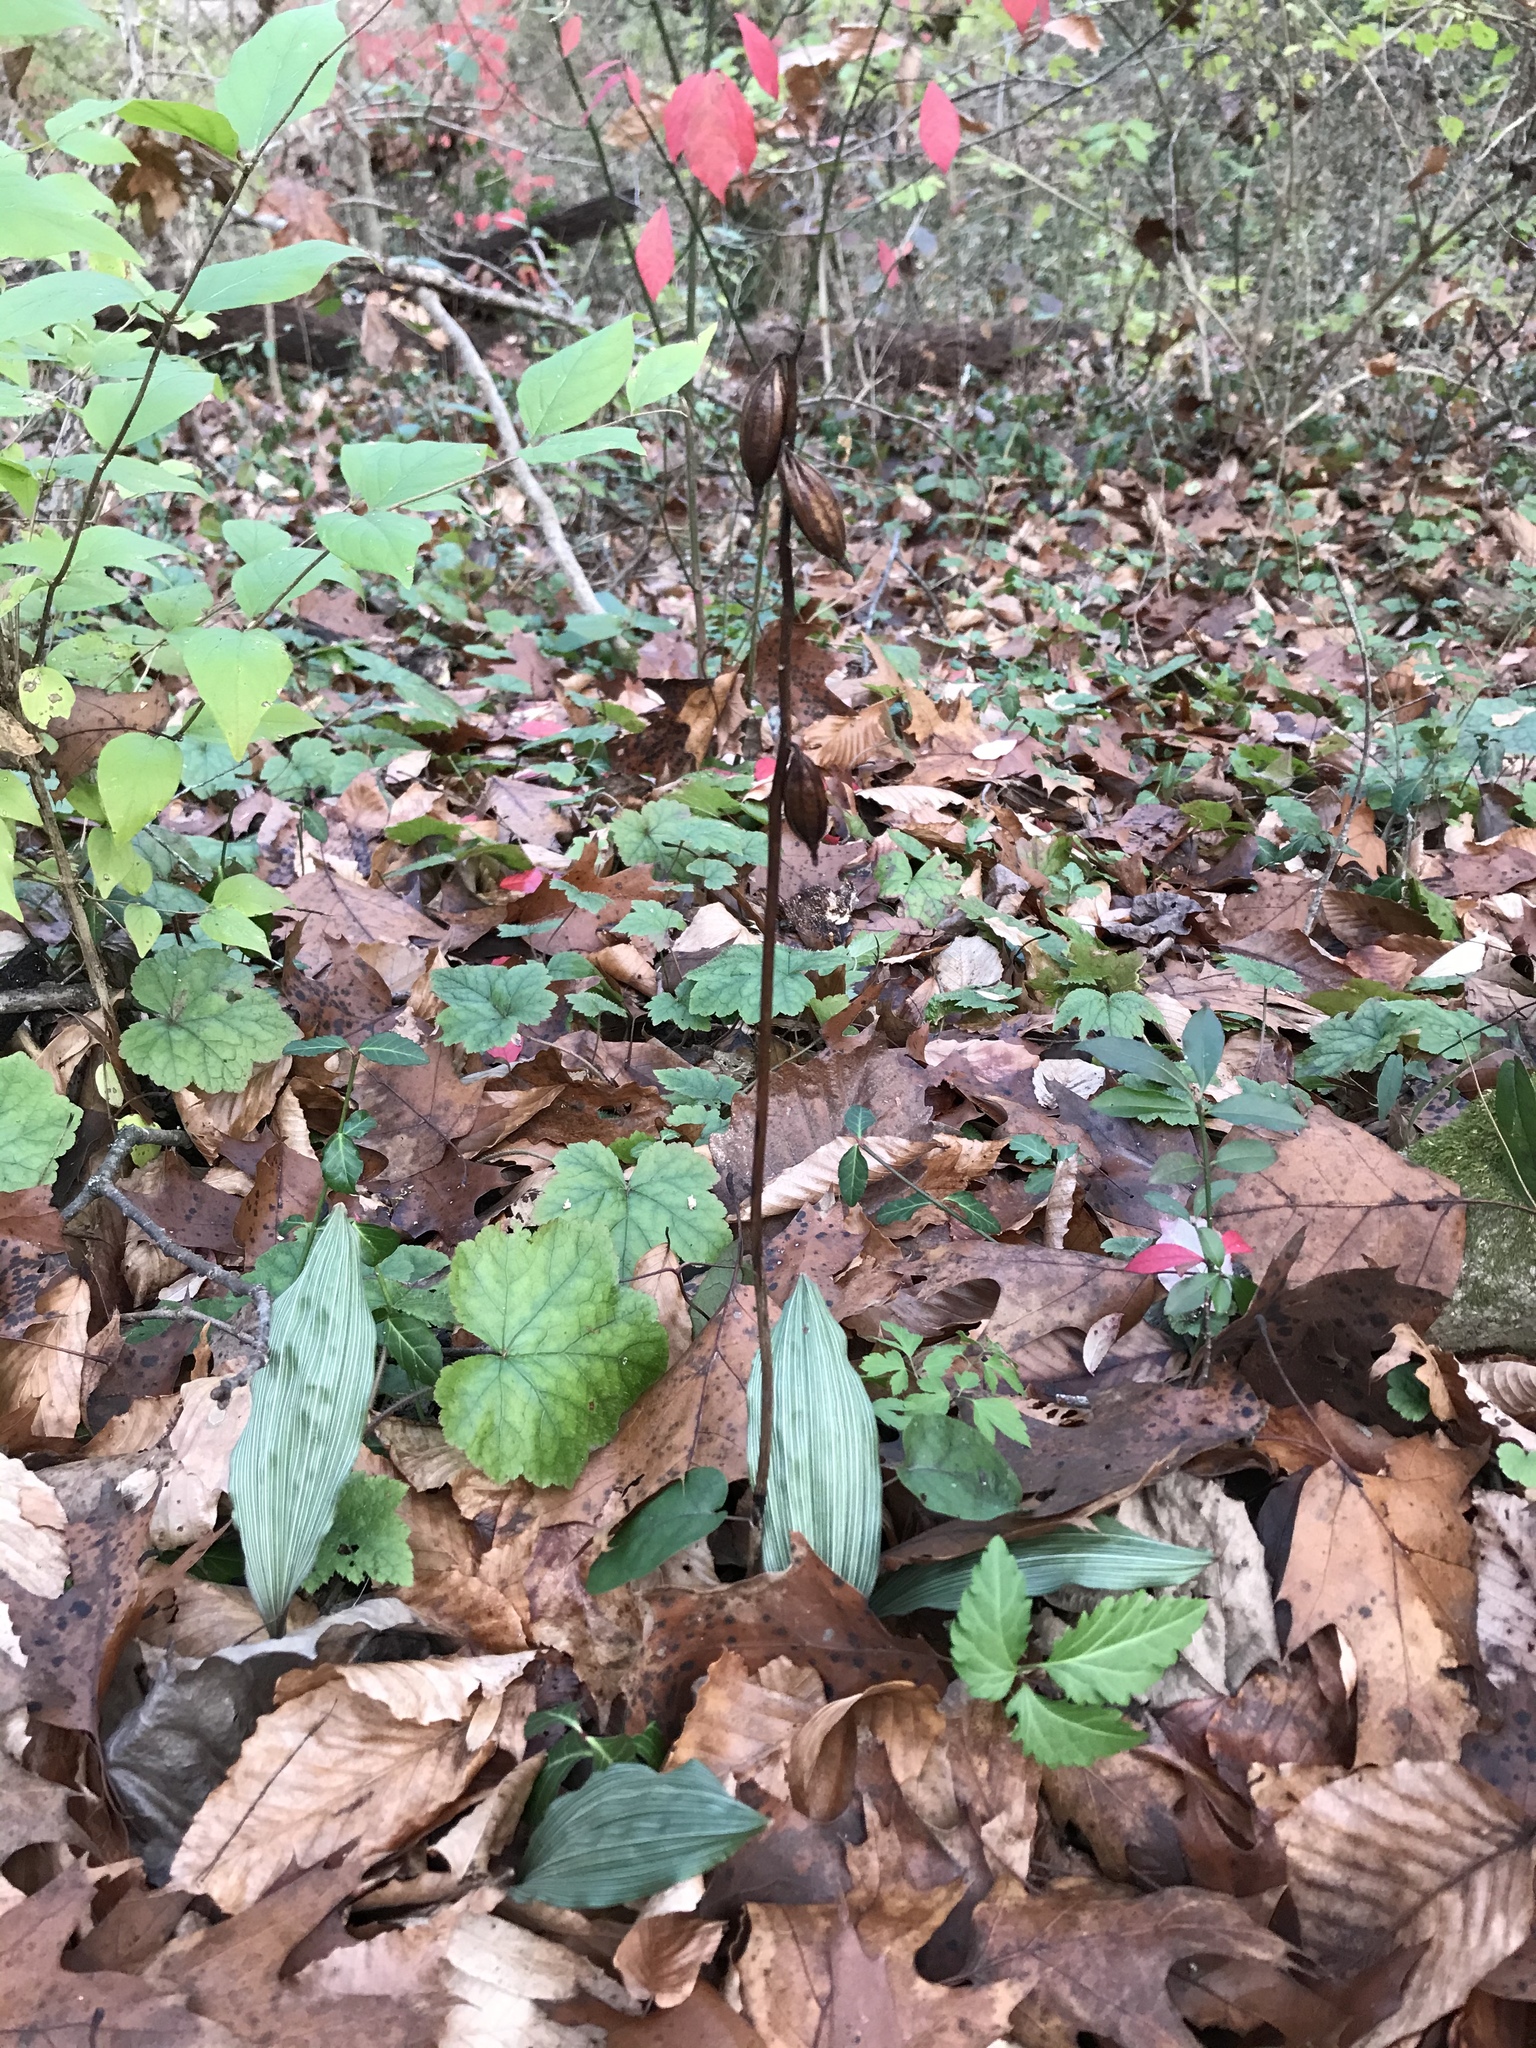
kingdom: Plantae
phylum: Tracheophyta
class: Liliopsida
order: Asparagales
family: Orchidaceae
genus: Aplectrum
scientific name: Aplectrum hyemale
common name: Adam-and-eve
